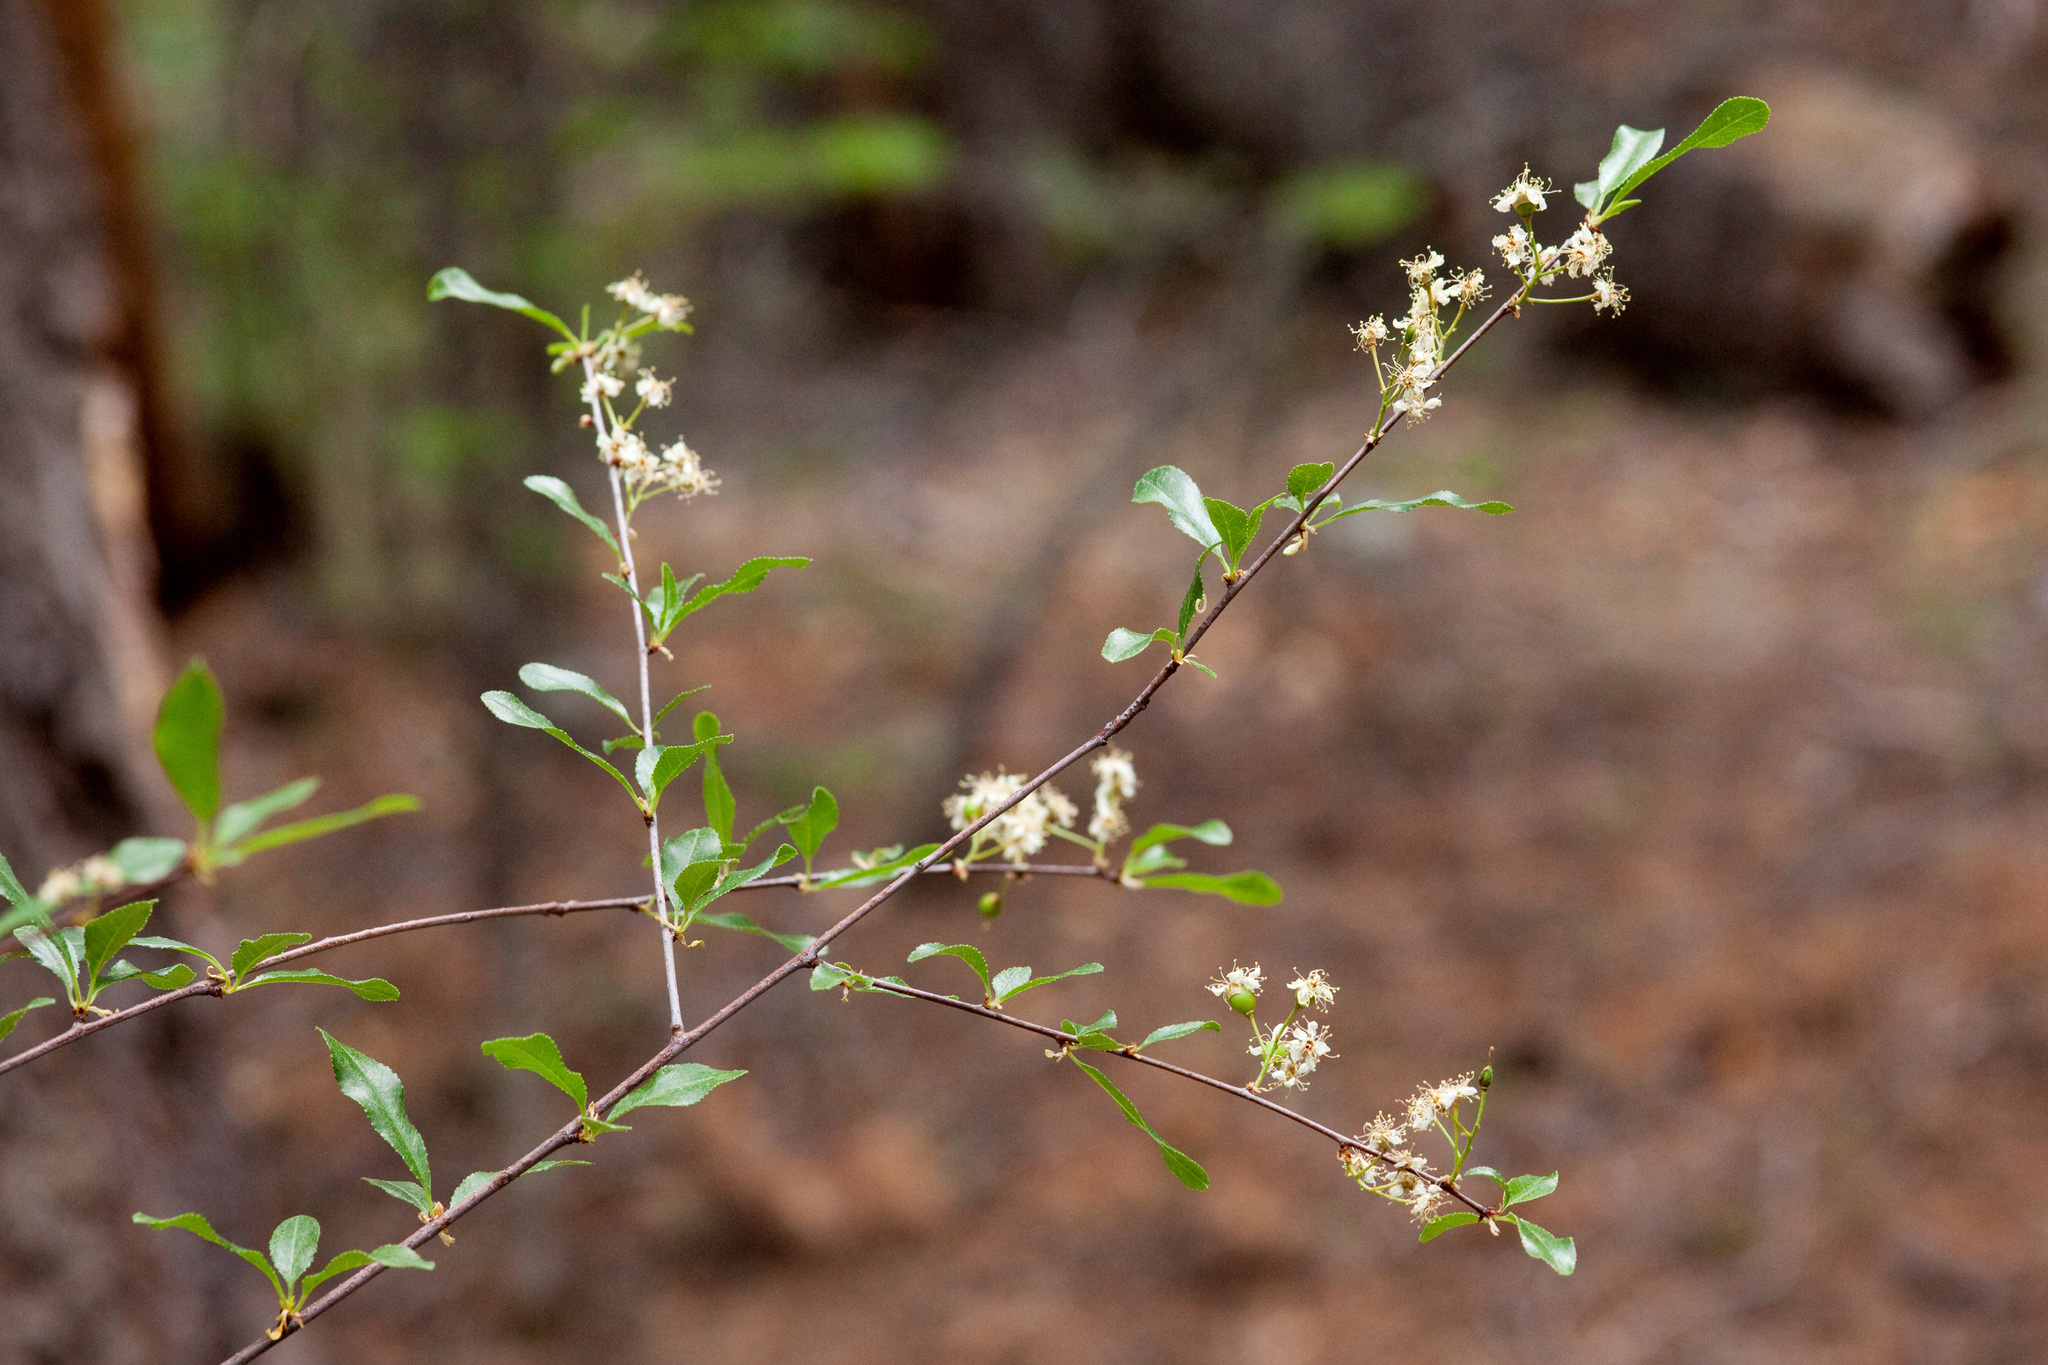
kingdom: Plantae
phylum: Tracheophyta
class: Magnoliopsida
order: Rosales
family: Rosaceae
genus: Prunus
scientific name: Prunus emarginata
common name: Bitter cherry
